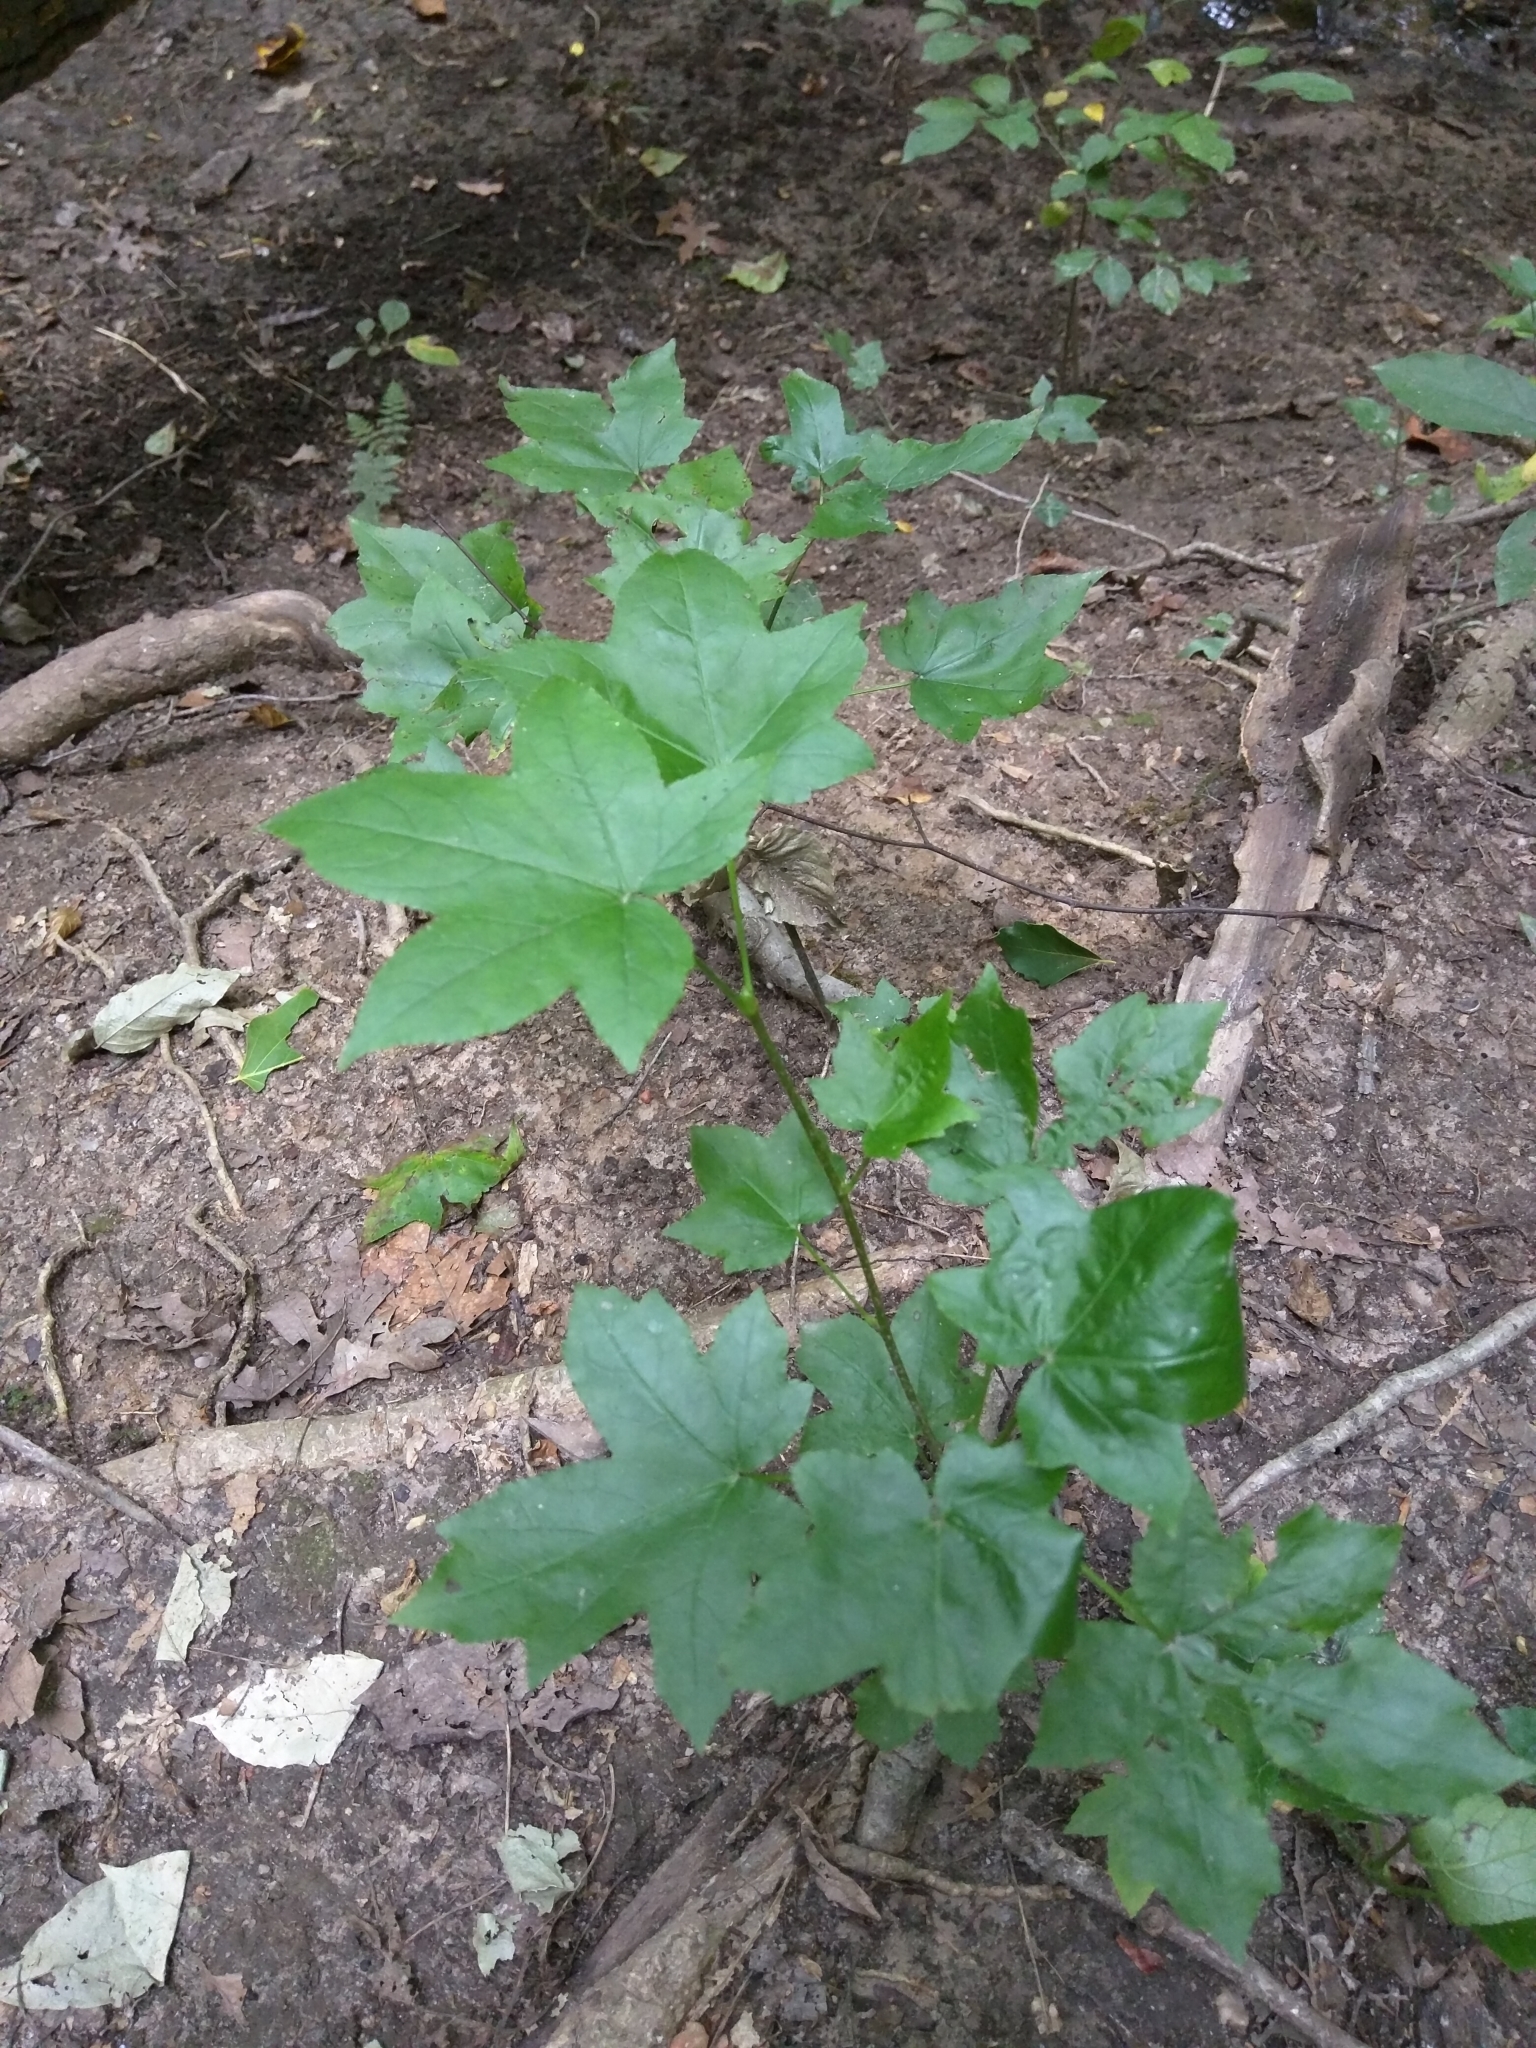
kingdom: Plantae
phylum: Tracheophyta
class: Magnoliopsida
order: Saxifragales
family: Altingiaceae
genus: Liquidambar
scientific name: Liquidambar styraciflua
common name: Sweet gum
